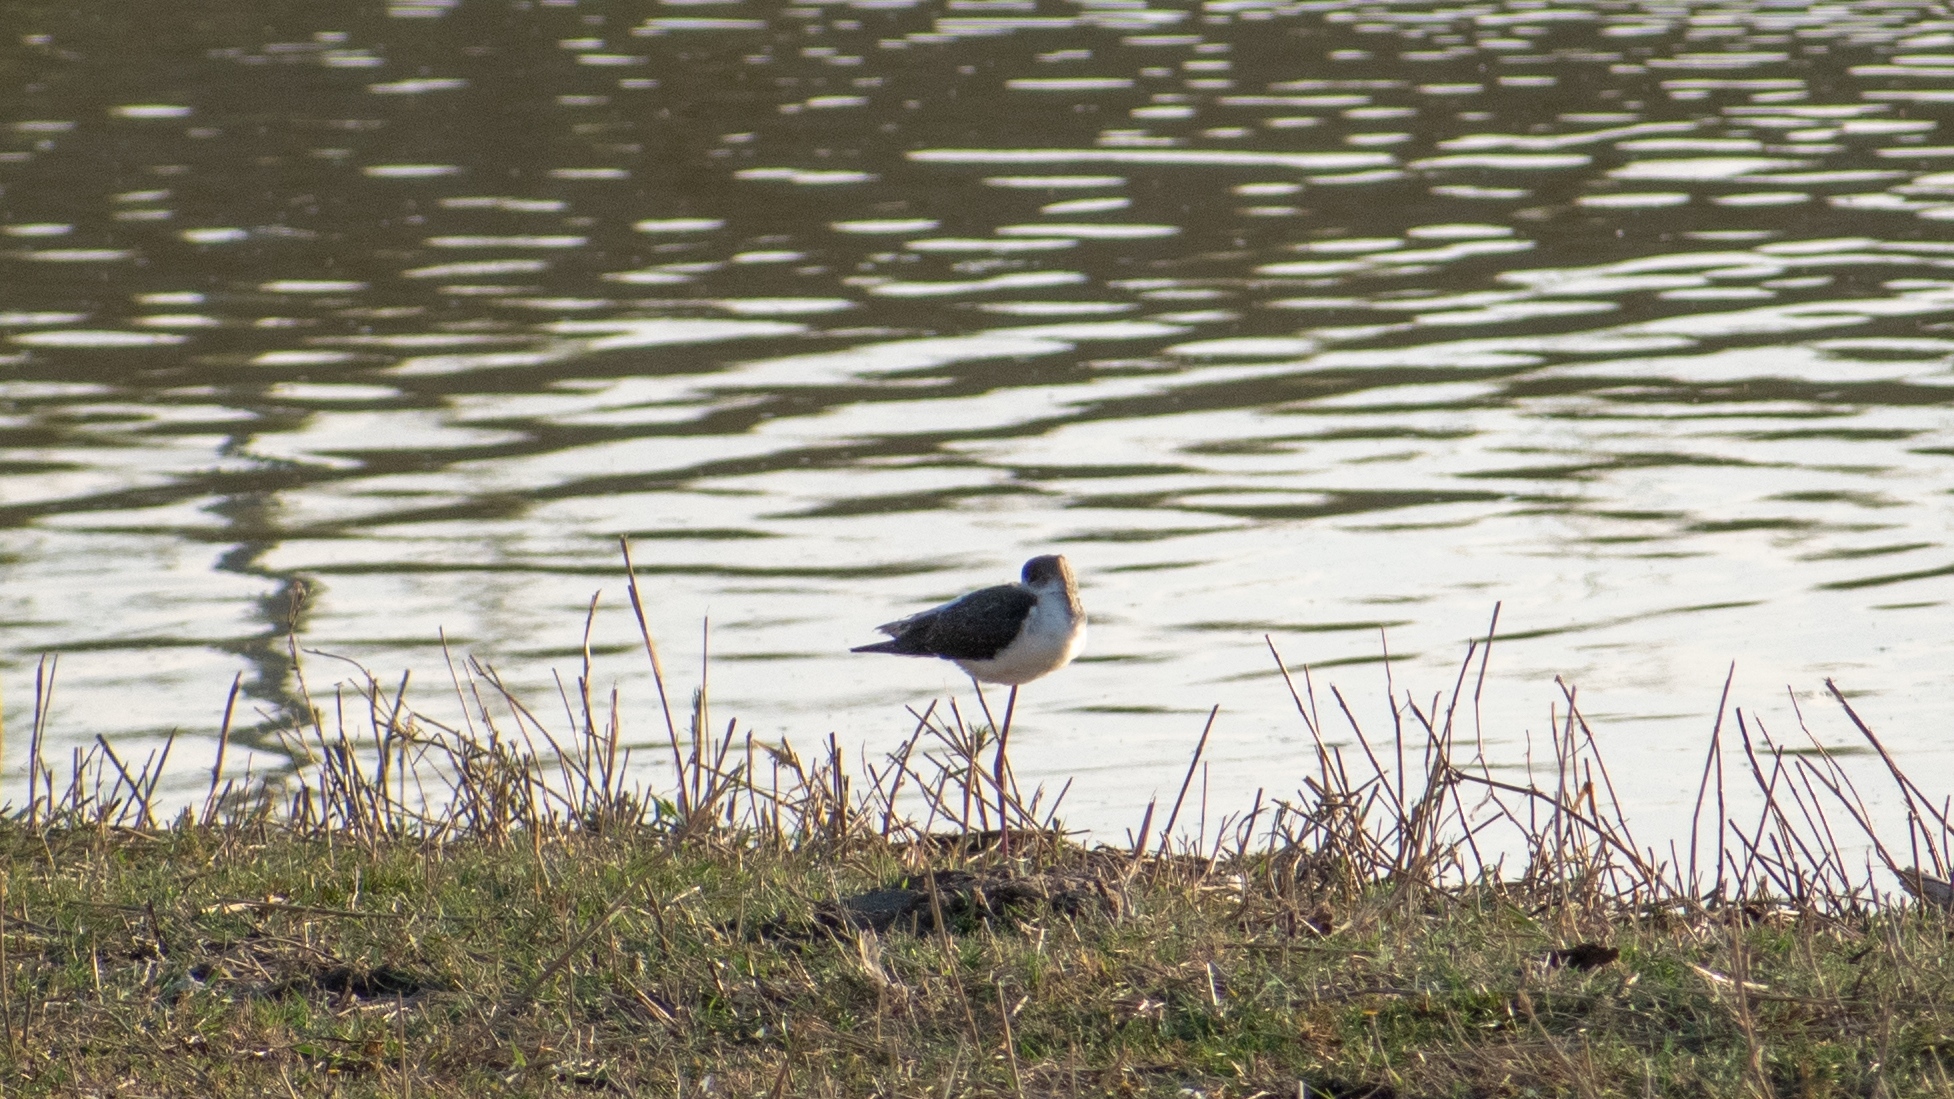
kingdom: Animalia
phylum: Chordata
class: Aves
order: Charadriiformes
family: Recurvirostridae
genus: Himantopus
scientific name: Himantopus himantopus
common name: Black-winged stilt
